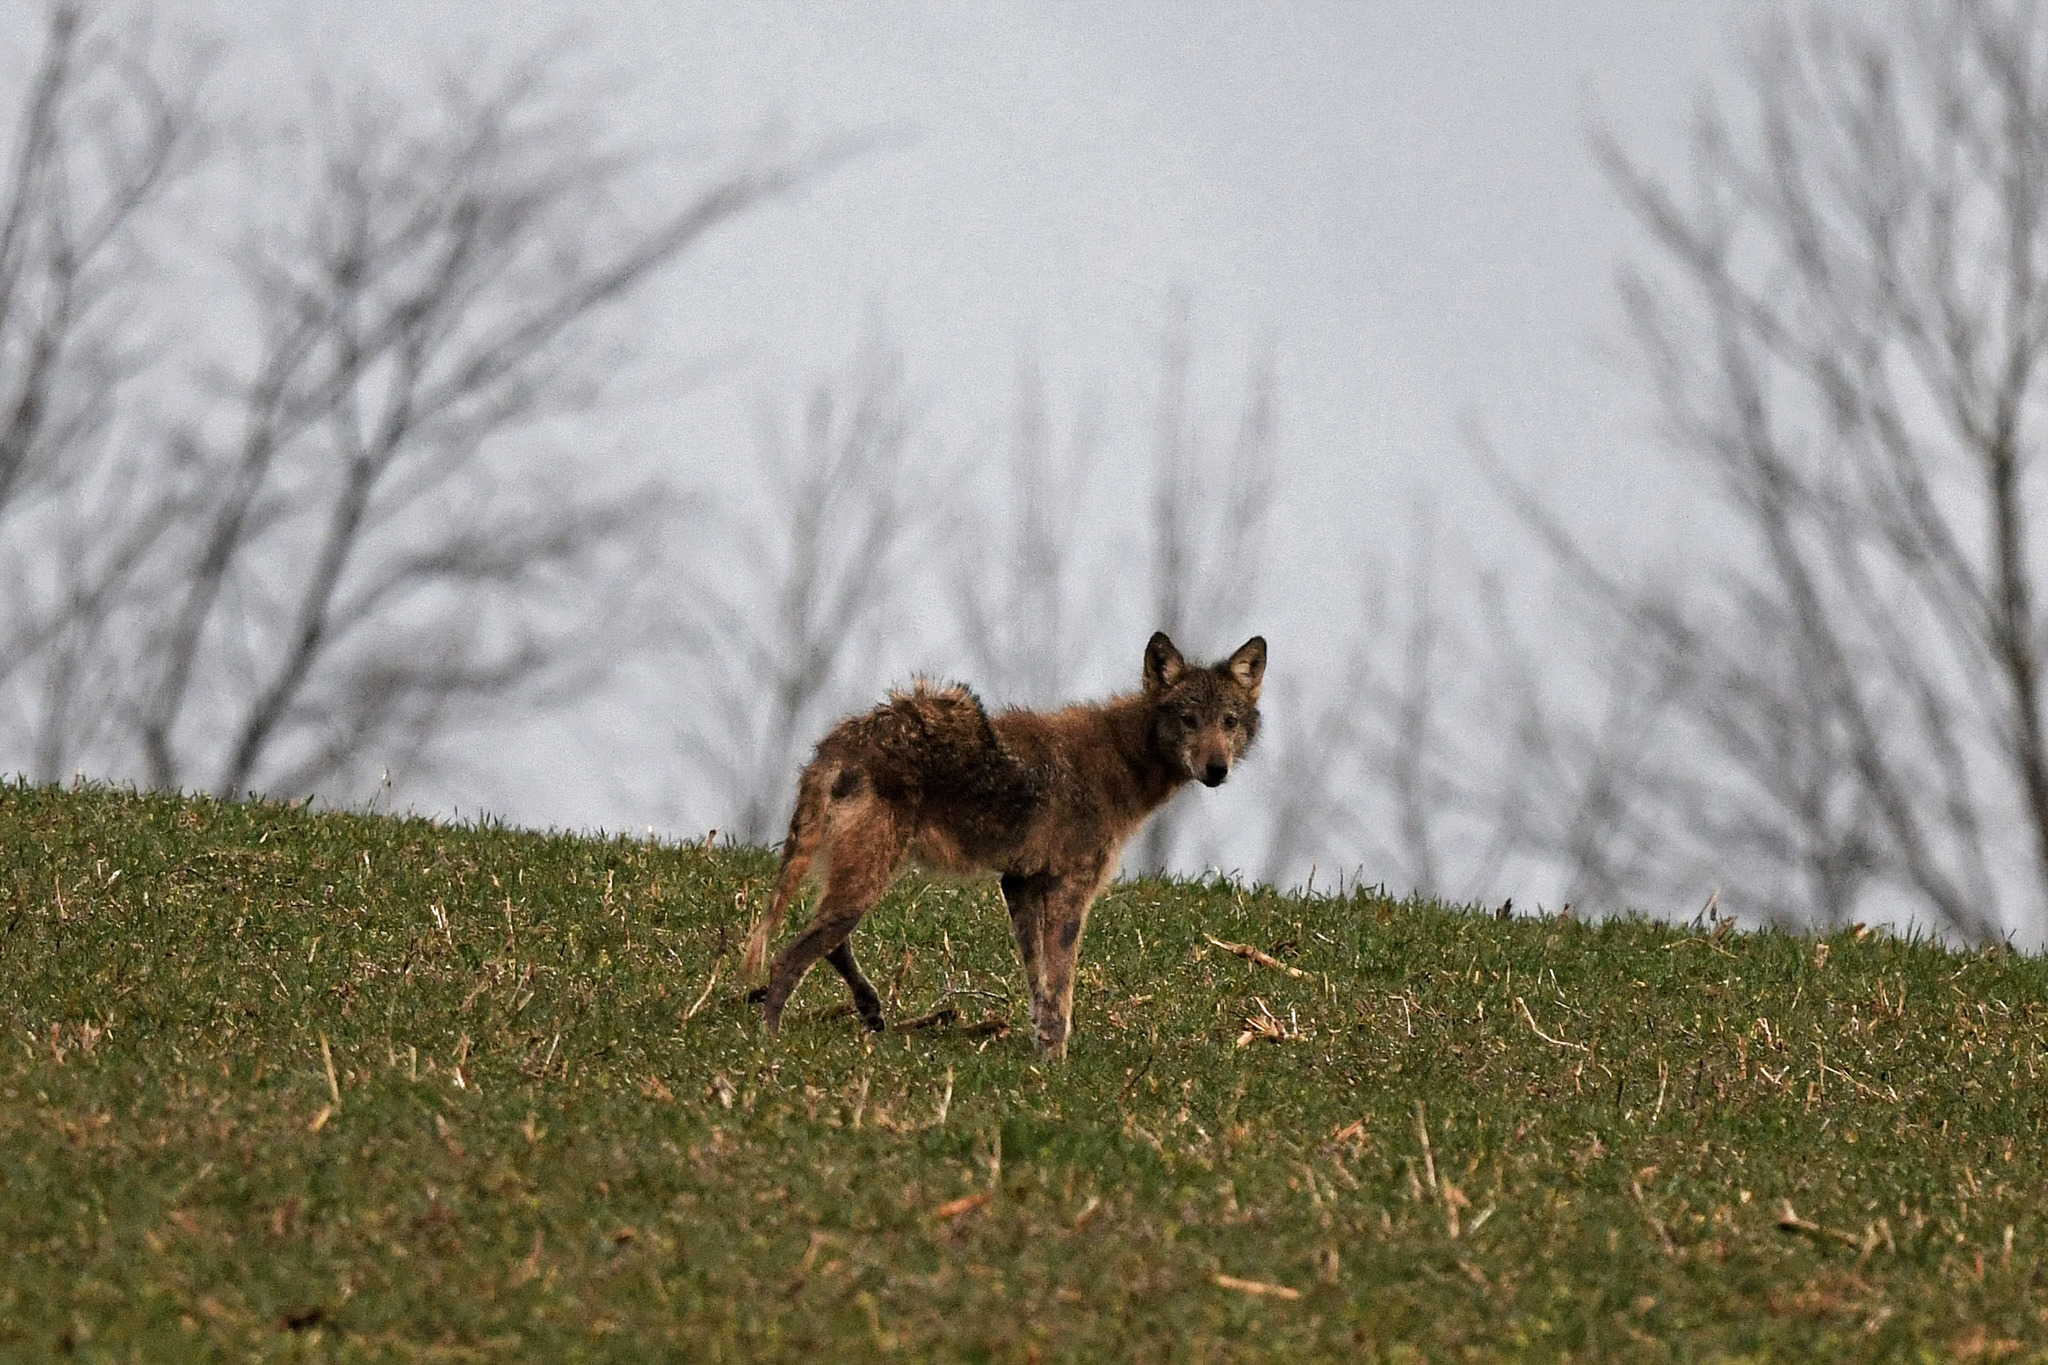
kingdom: Animalia
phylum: Chordata
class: Mammalia
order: Carnivora
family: Canidae
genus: Canis
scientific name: Canis latrans
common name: Coyote
